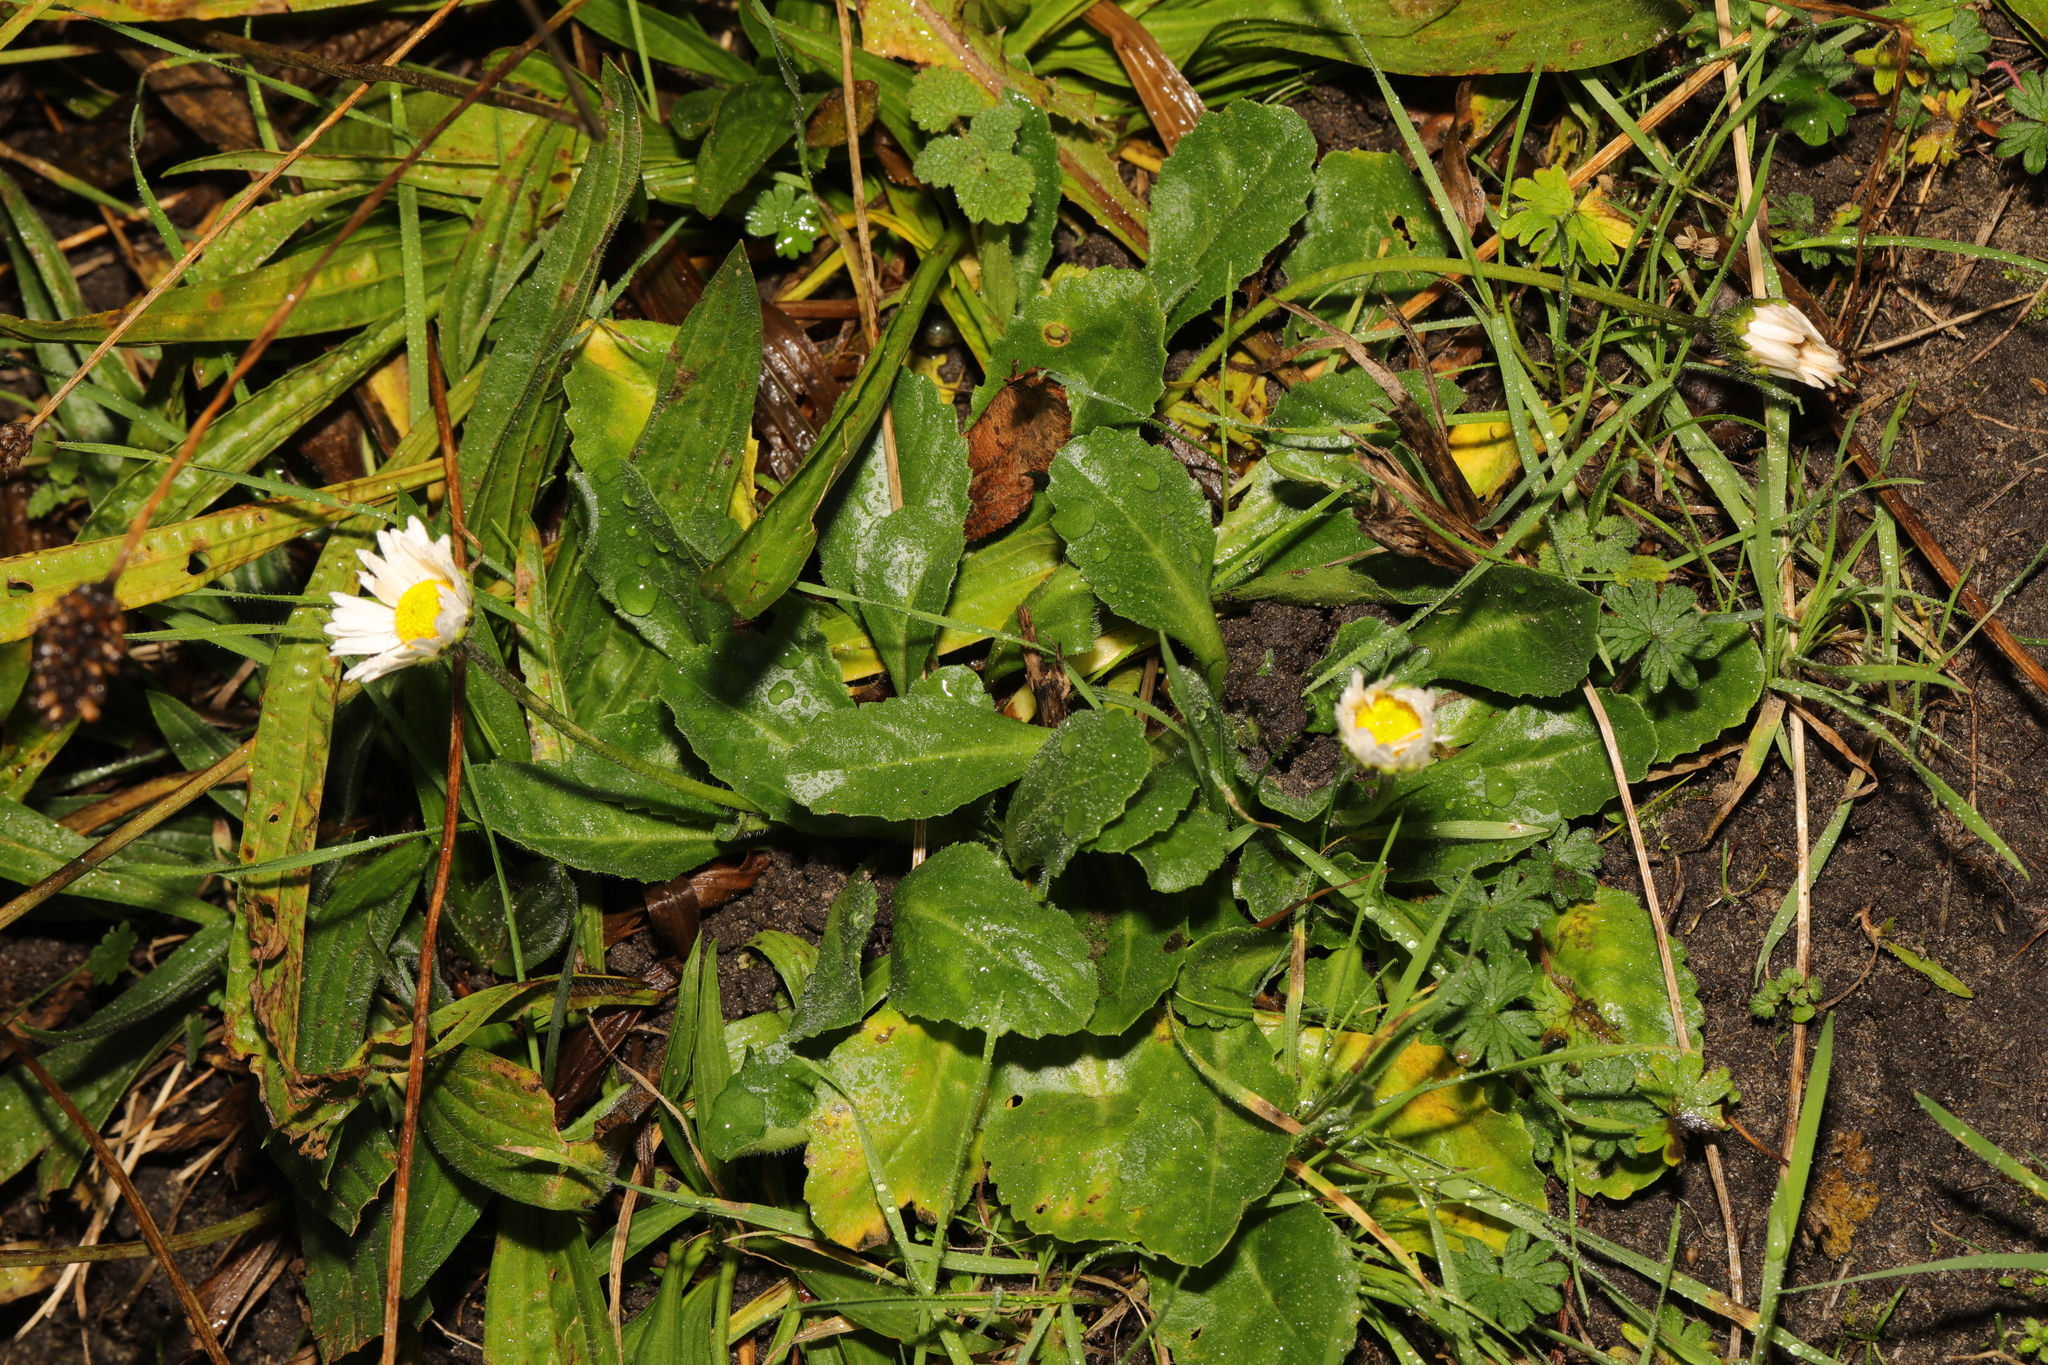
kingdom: Plantae
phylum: Tracheophyta
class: Magnoliopsida
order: Asterales
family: Asteraceae
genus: Bellis
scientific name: Bellis perennis
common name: Lawndaisy
